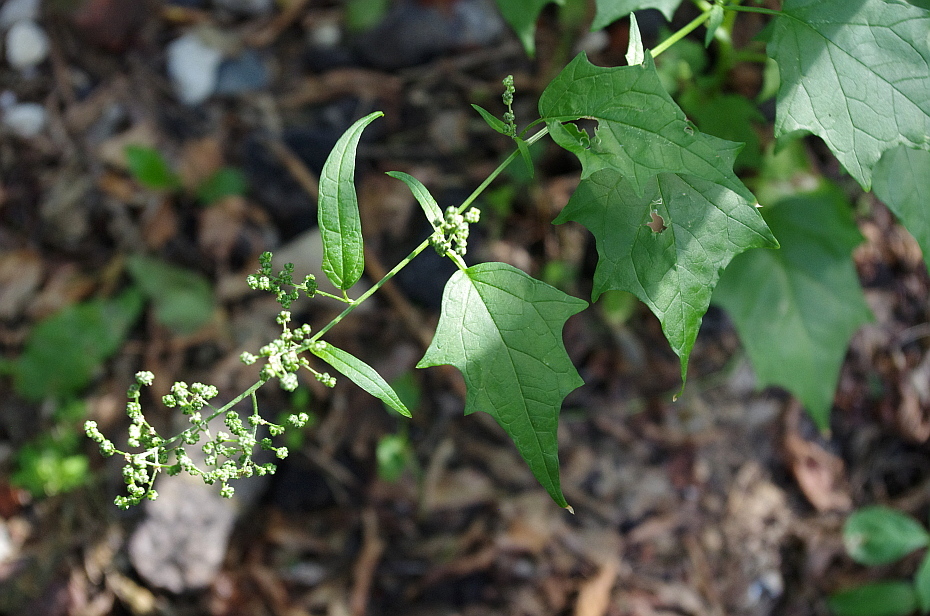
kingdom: Plantae
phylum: Tracheophyta
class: Magnoliopsida
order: Caryophyllales
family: Amaranthaceae
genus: Chenopodiastrum
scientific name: Chenopodiastrum hybridum
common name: Mapleleaf goosefoot
